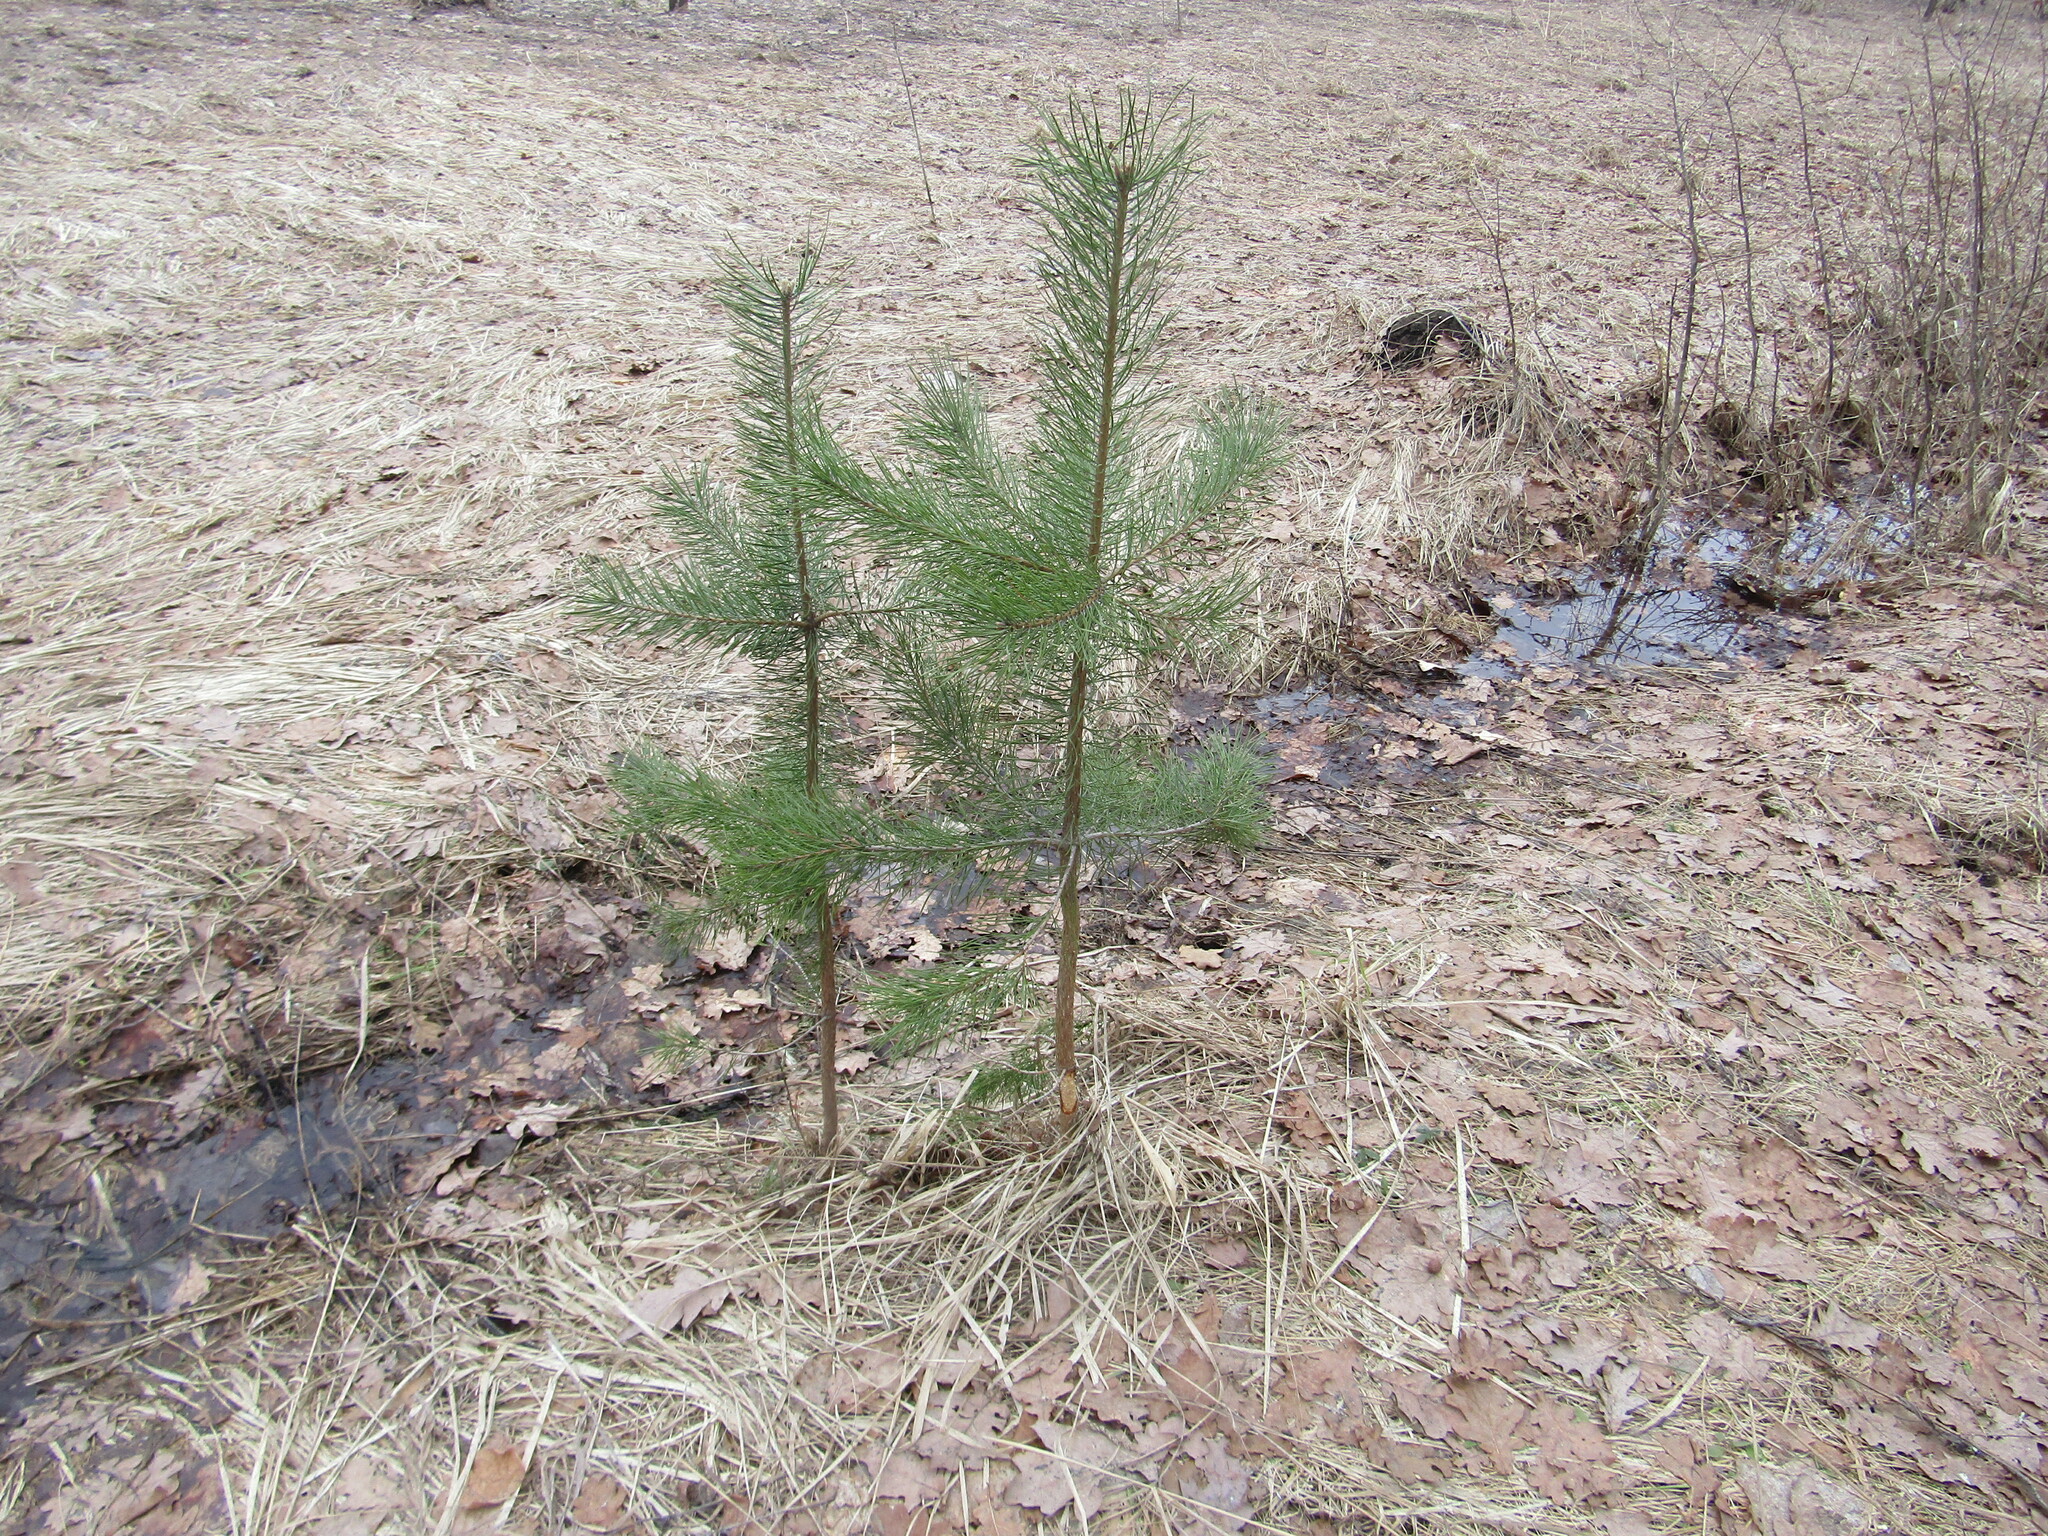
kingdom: Plantae
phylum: Tracheophyta
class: Pinopsida
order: Pinales
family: Pinaceae
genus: Pinus
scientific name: Pinus sylvestris
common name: Scots pine
